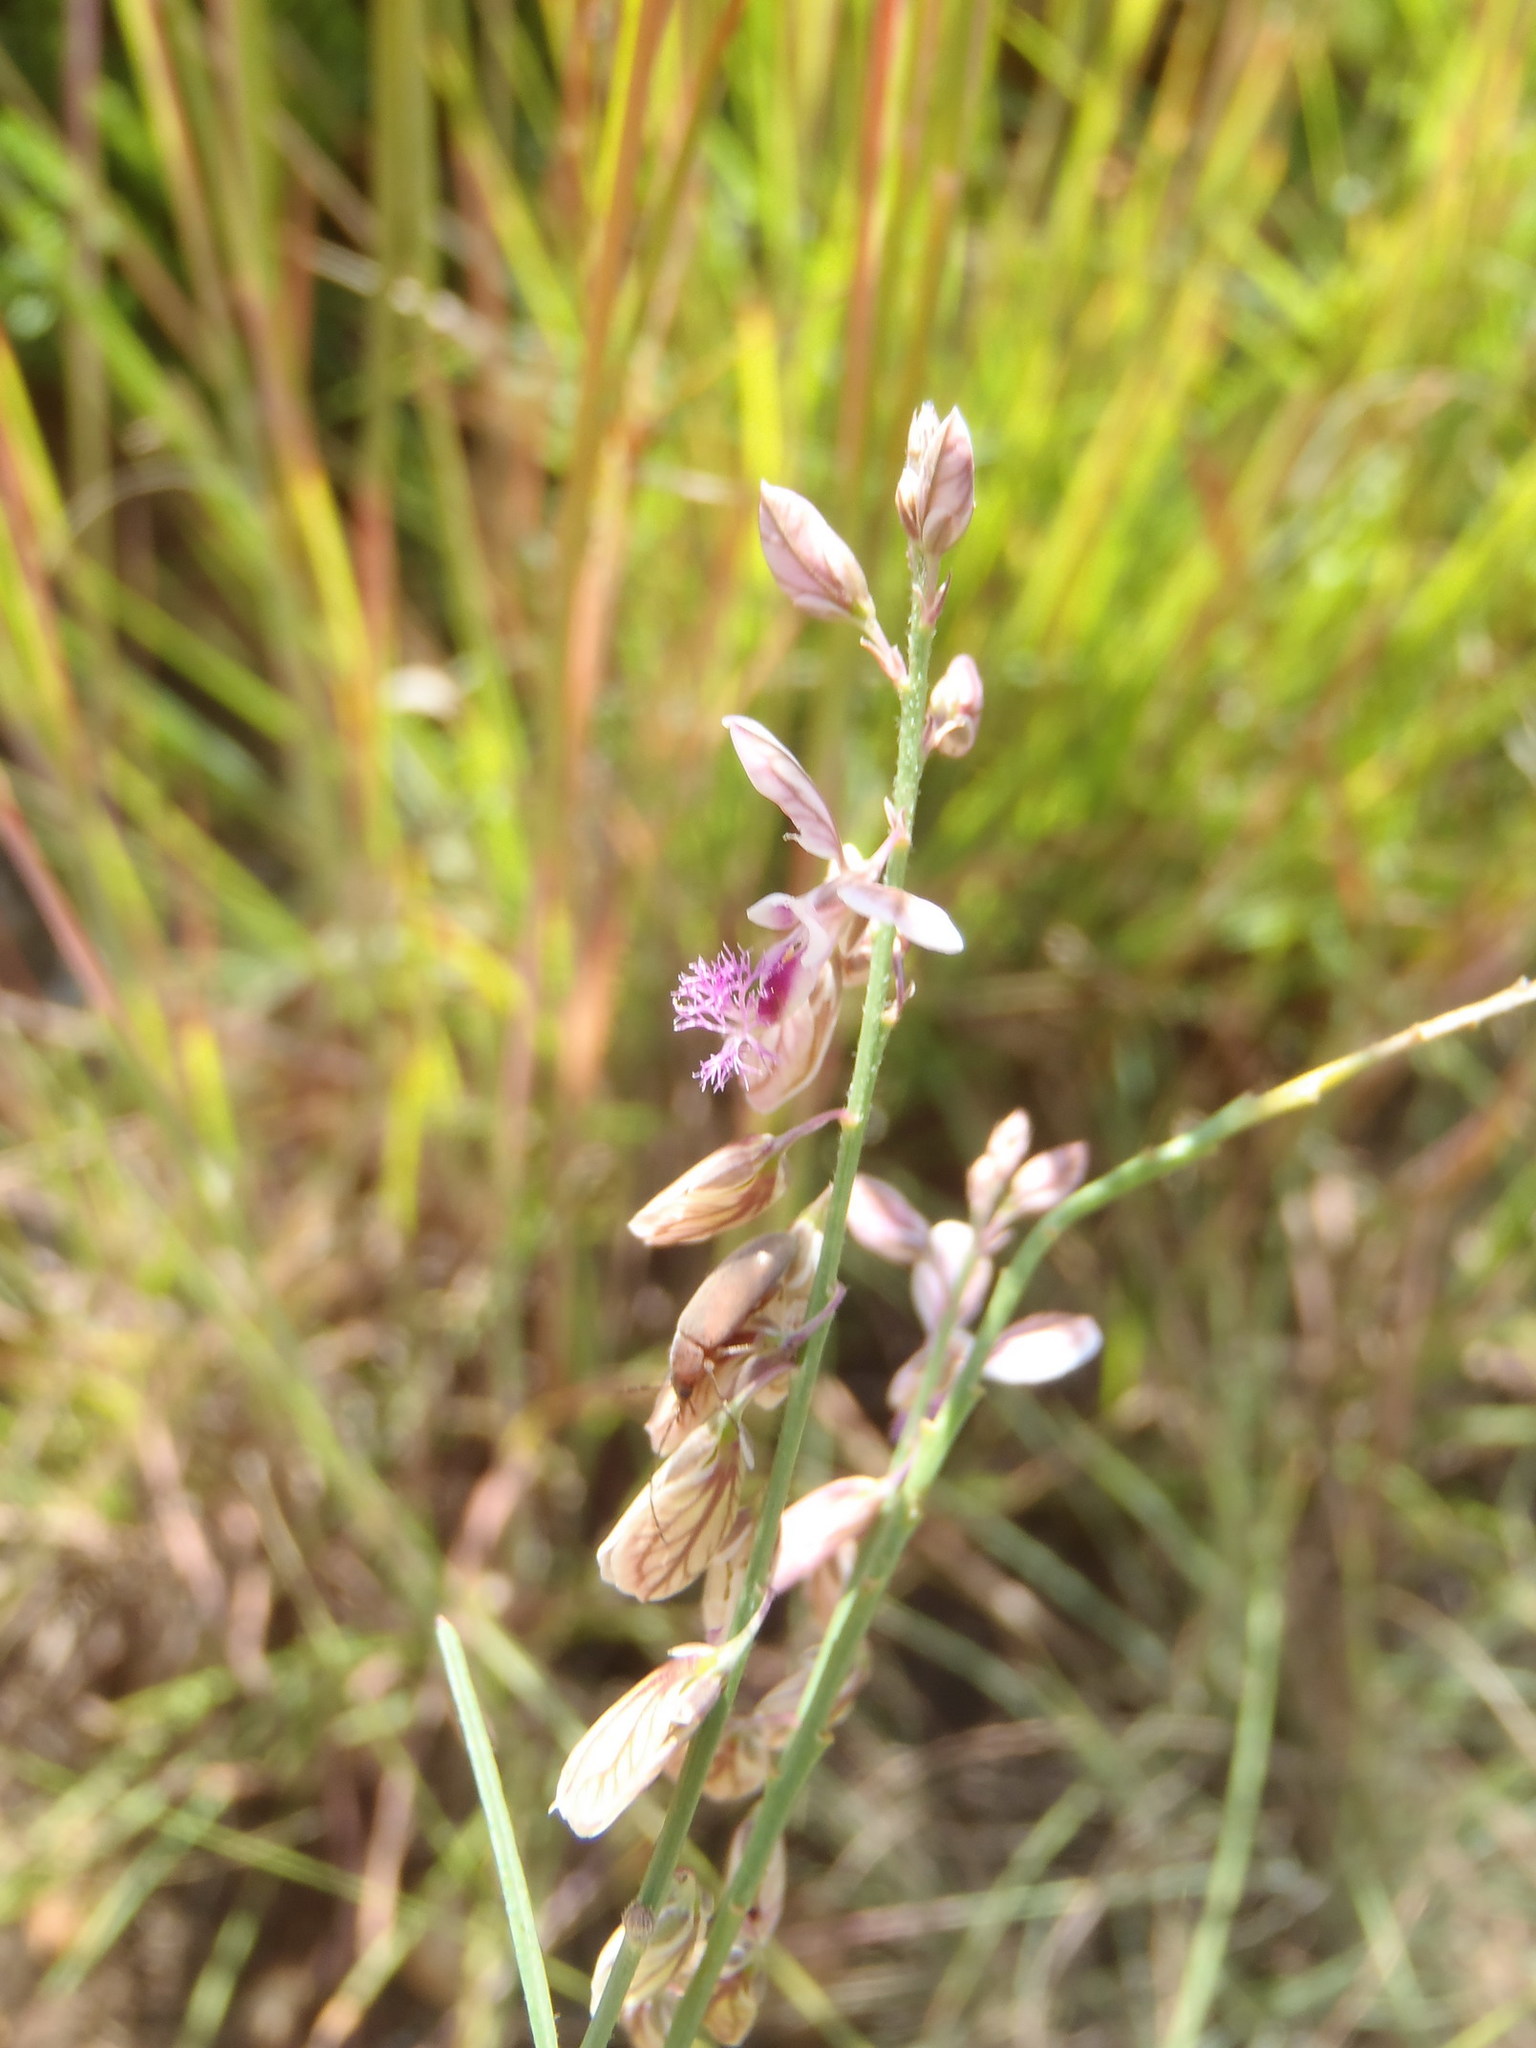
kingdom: Plantae
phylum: Tracheophyta
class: Magnoliopsida
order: Fabales
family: Polygalaceae
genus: Polygala
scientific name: Polygala hottentotta
